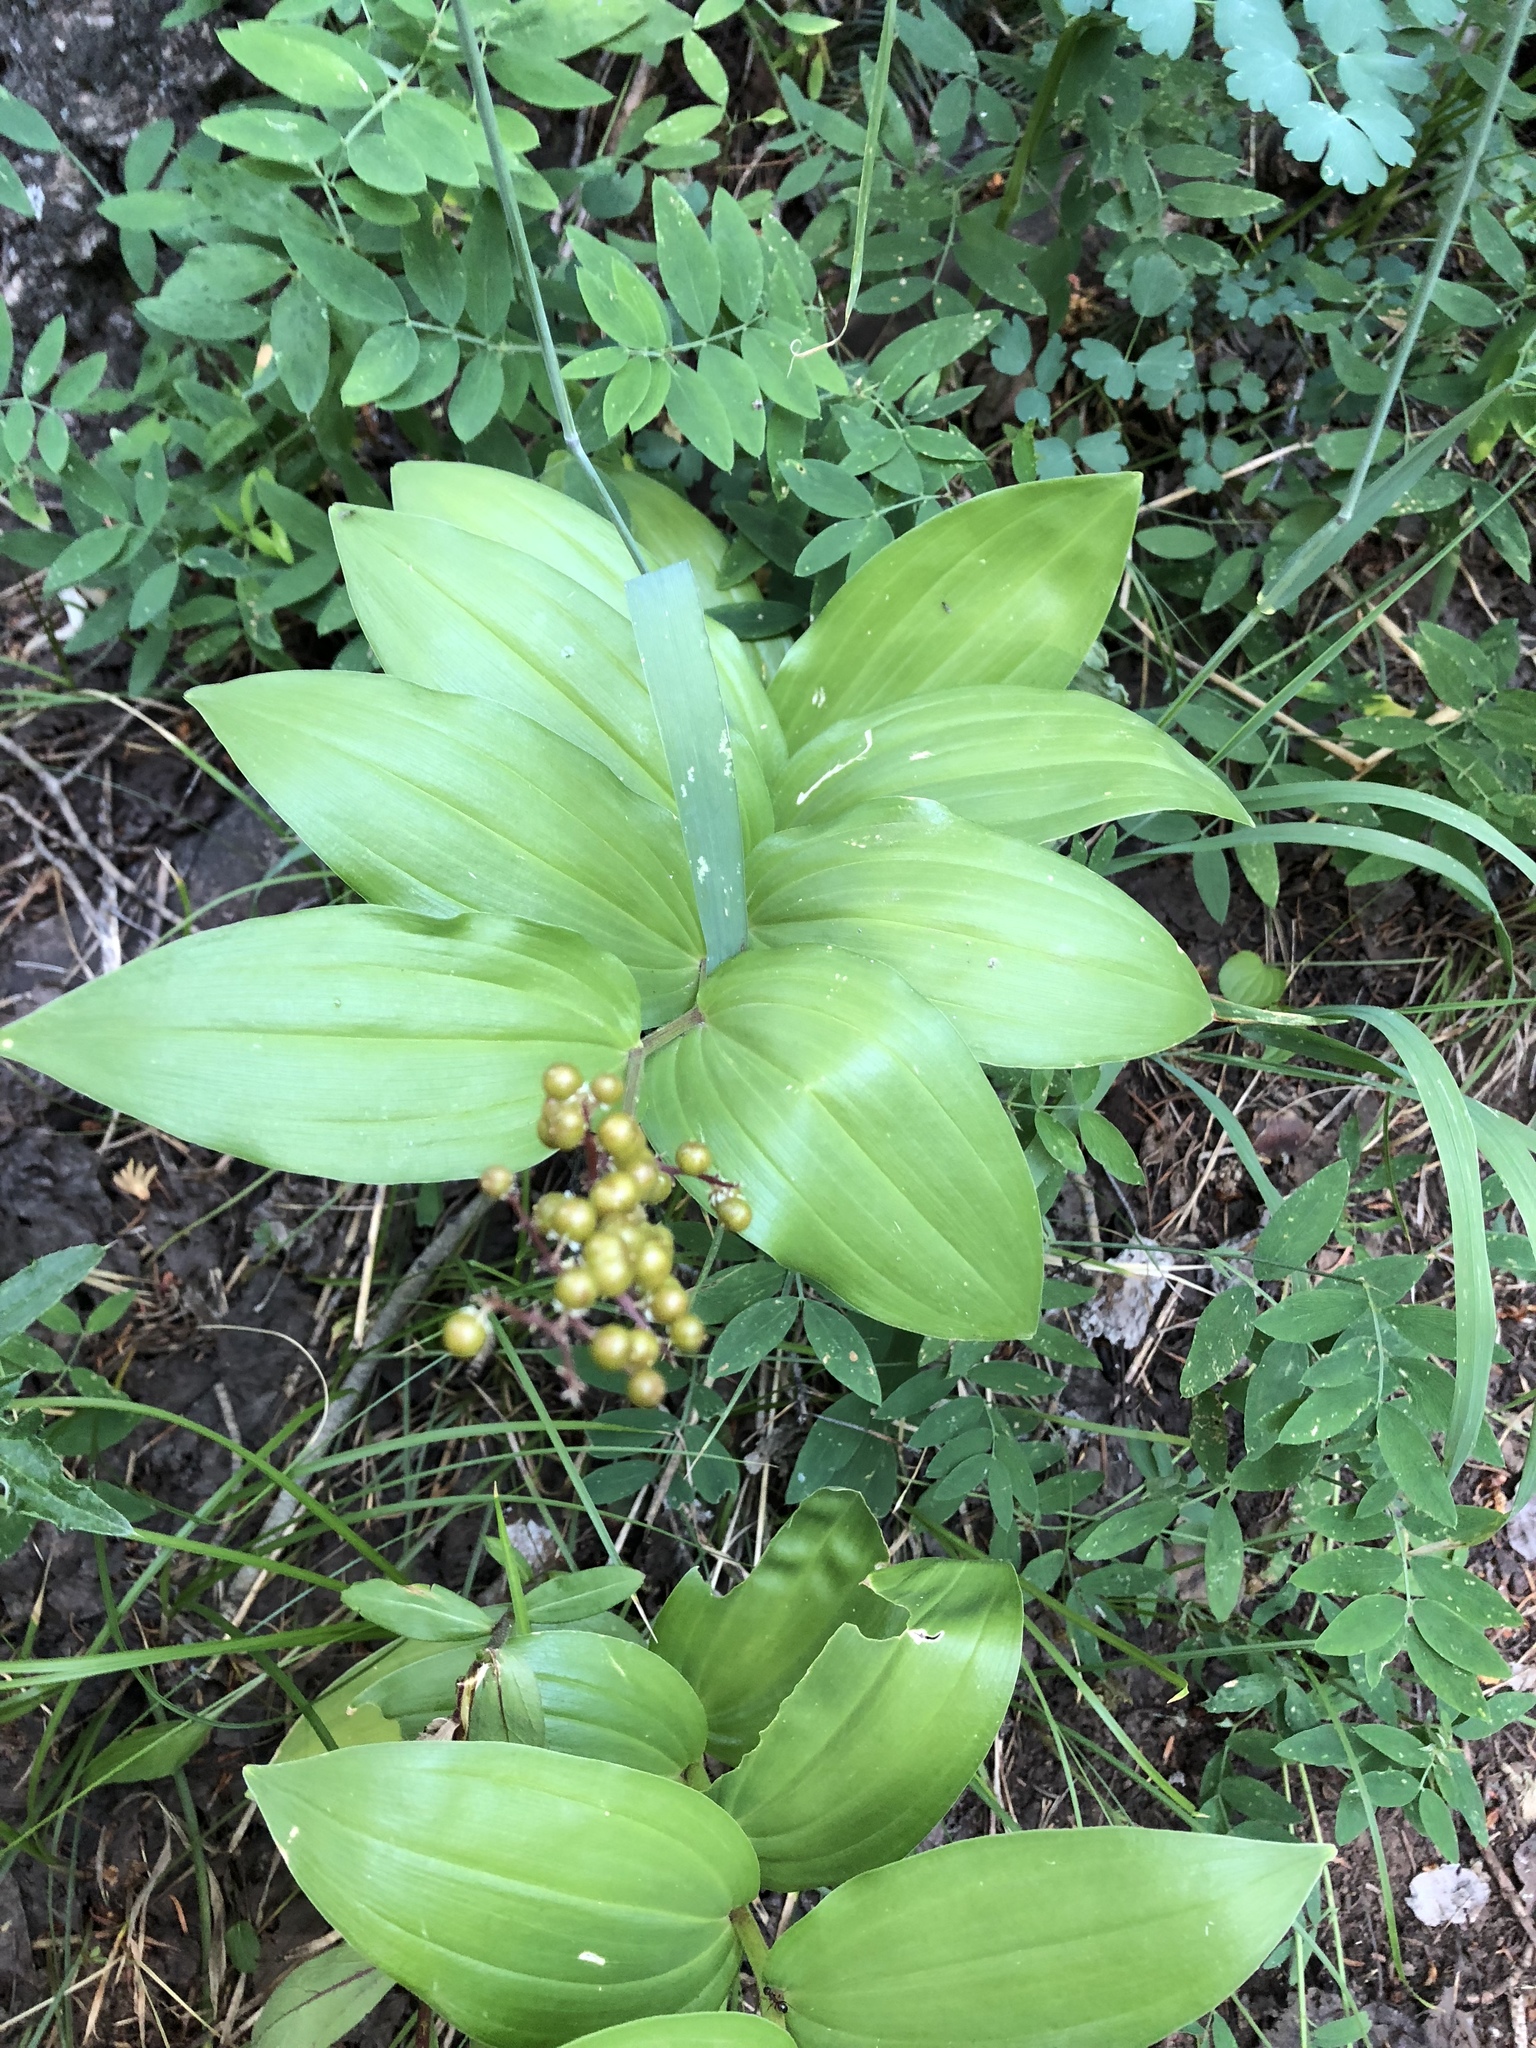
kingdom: Plantae
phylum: Tracheophyta
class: Liliopsida
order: Asparagales
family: Asparagaceae
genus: Maianthemum
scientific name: Maianthemum racemosum
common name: False spikenard
